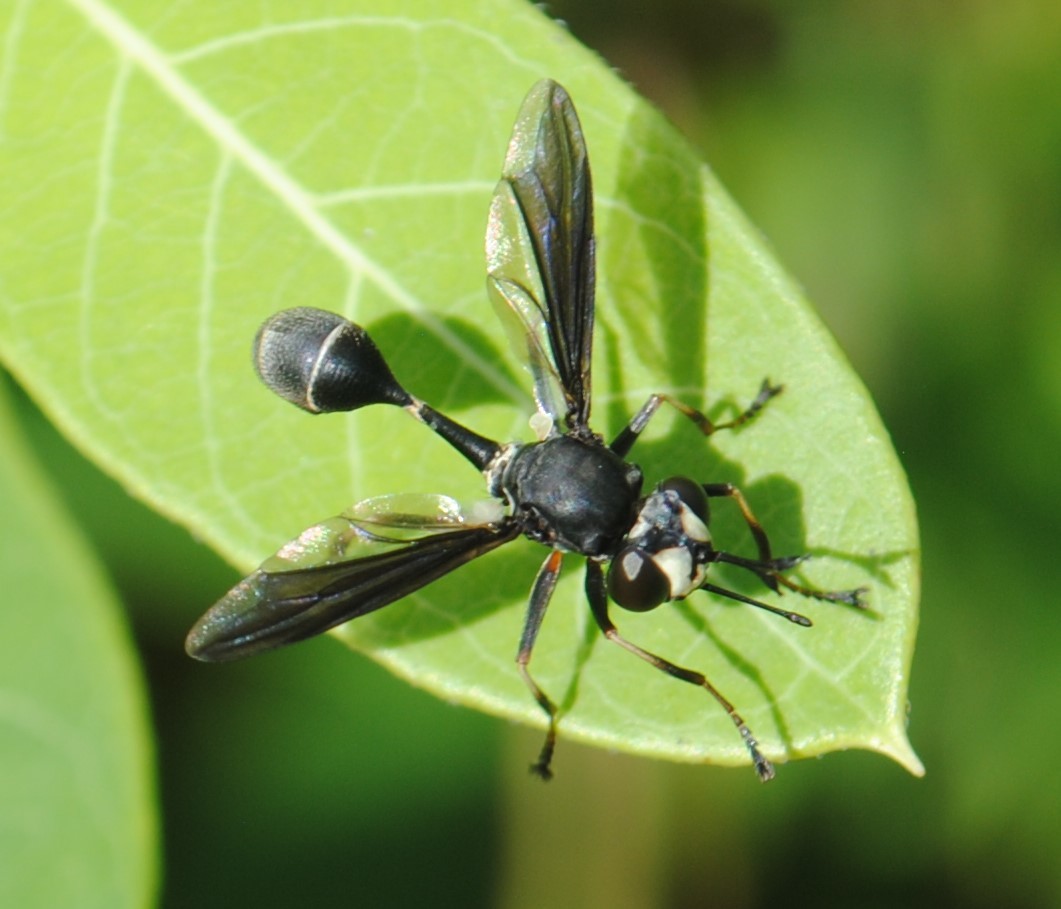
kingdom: Animalia
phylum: Arthropoda
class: Insecta
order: Diptera
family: Conopidae
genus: Physocephala
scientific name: Physocephala tibialis
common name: Common eastern physocephala
